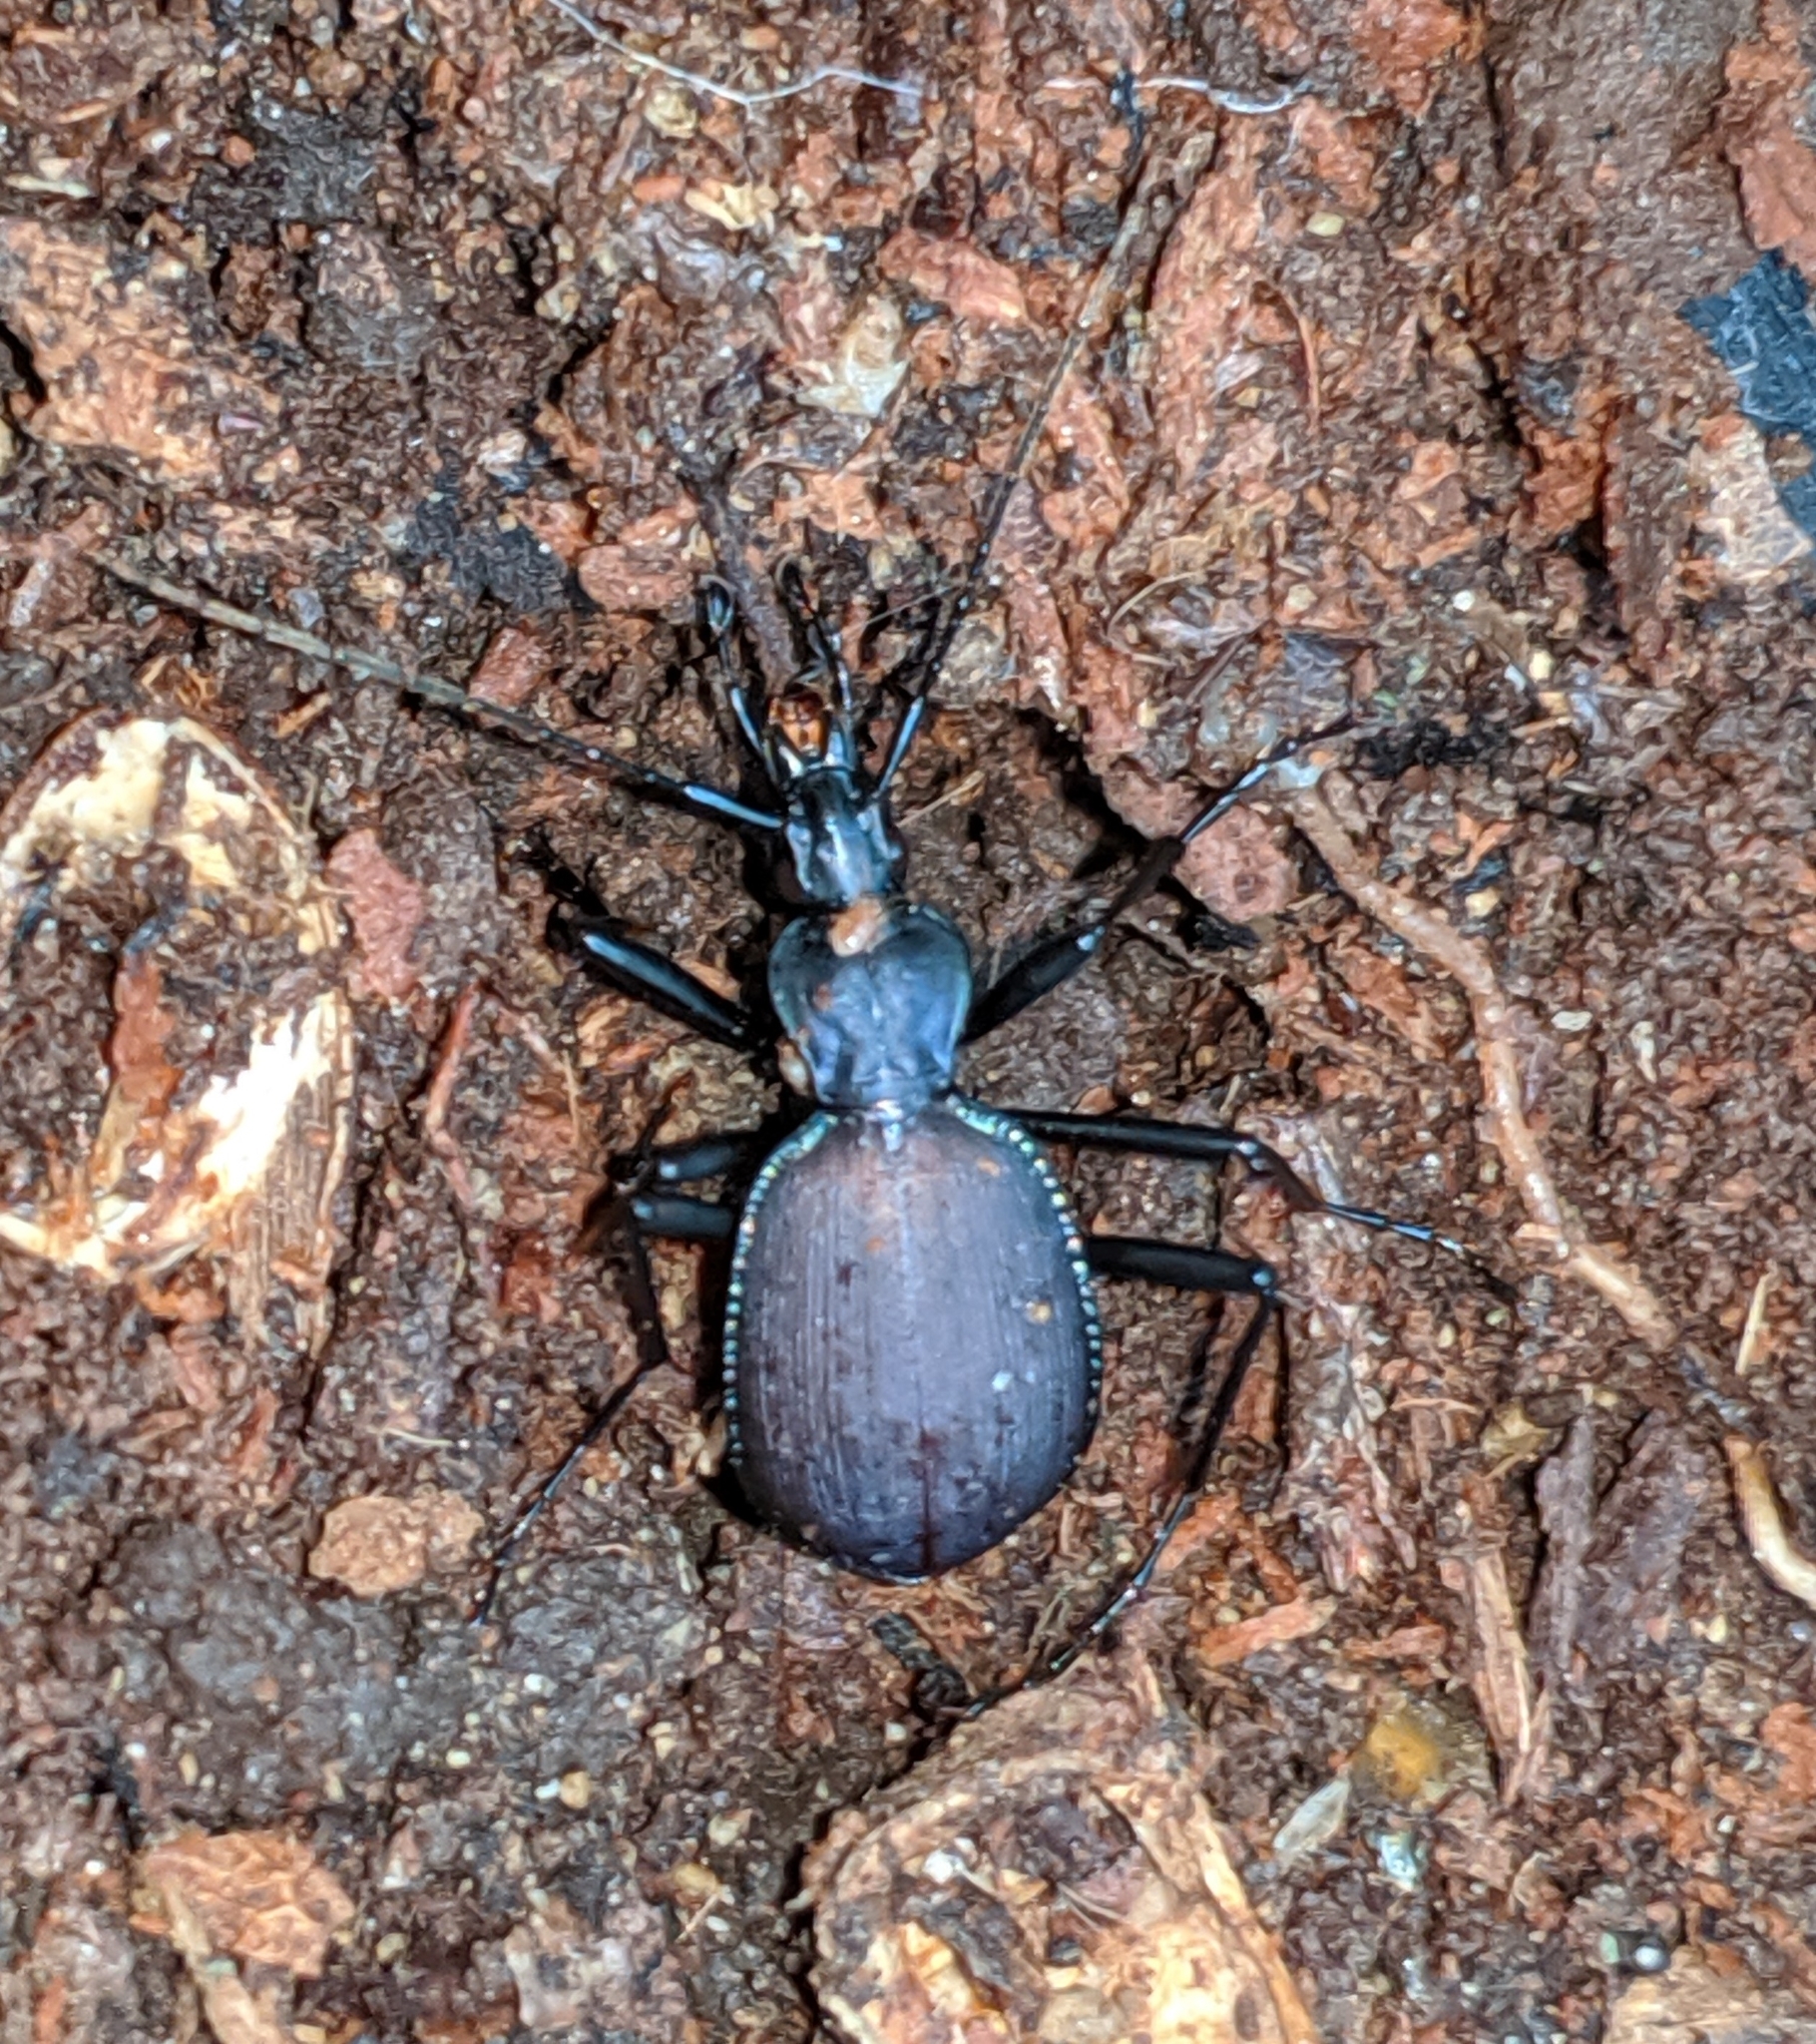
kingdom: Animalia
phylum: Arthropoda
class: Insecta
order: Coleoptera
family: Carabidae
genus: Scaphinotus
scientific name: Scaphinotus angusticollis
